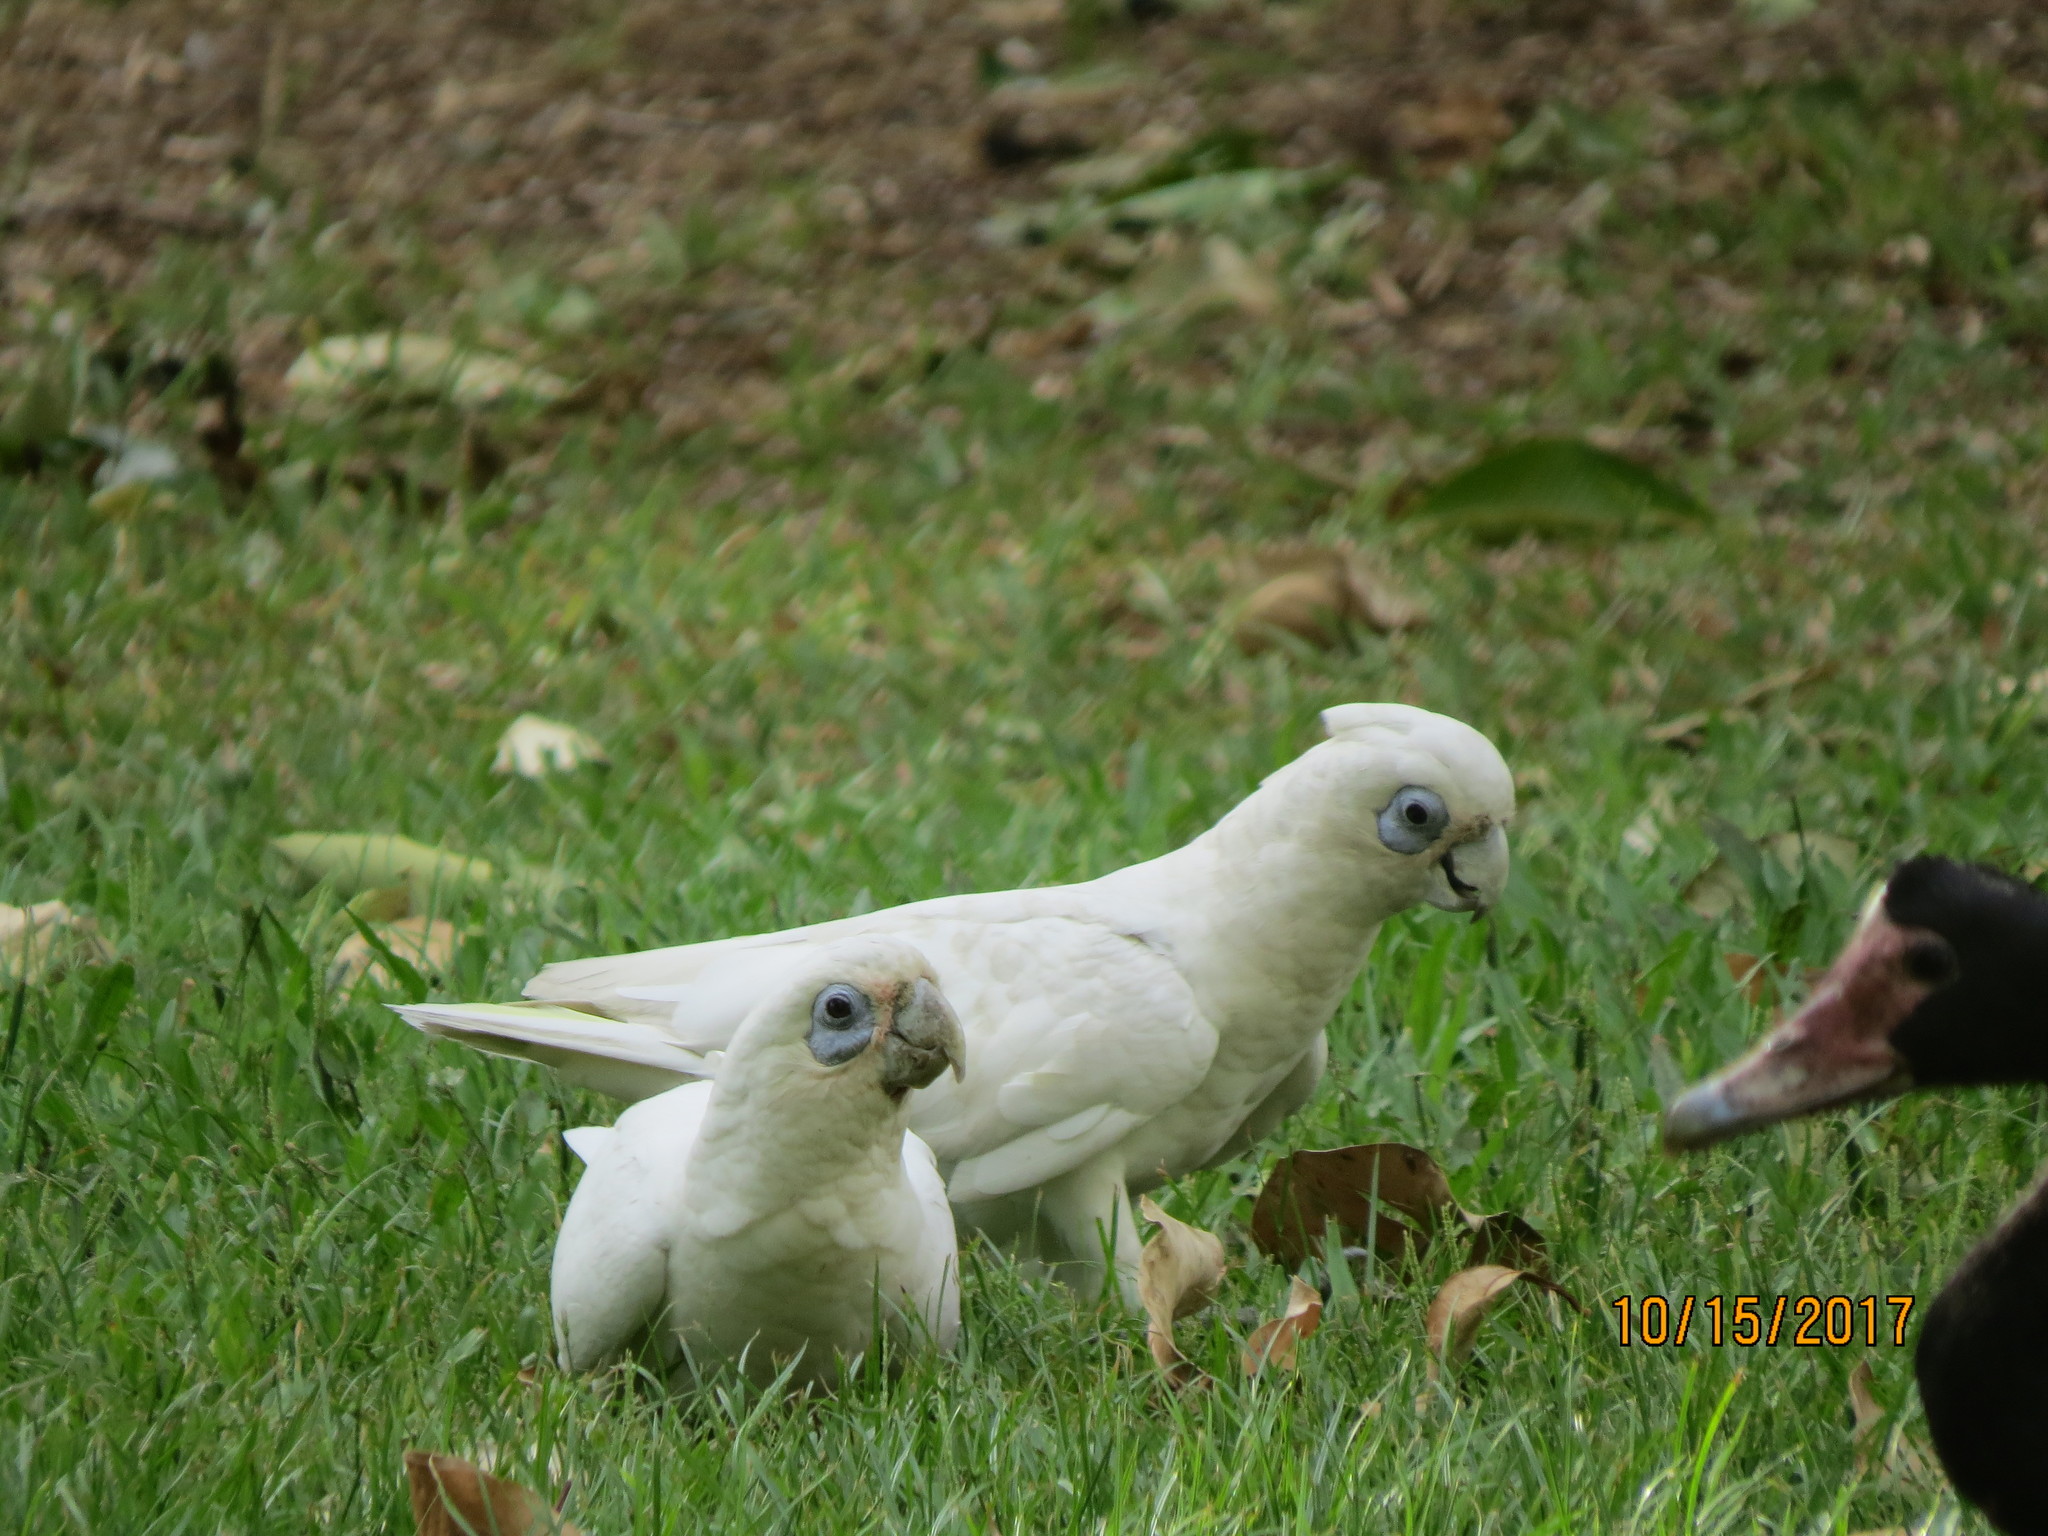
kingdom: Animalia
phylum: Chordata
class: Aves
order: Psittaciformes
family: Psittacidae
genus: Cacatua
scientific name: Cacatua sanguinea
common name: Little corella
